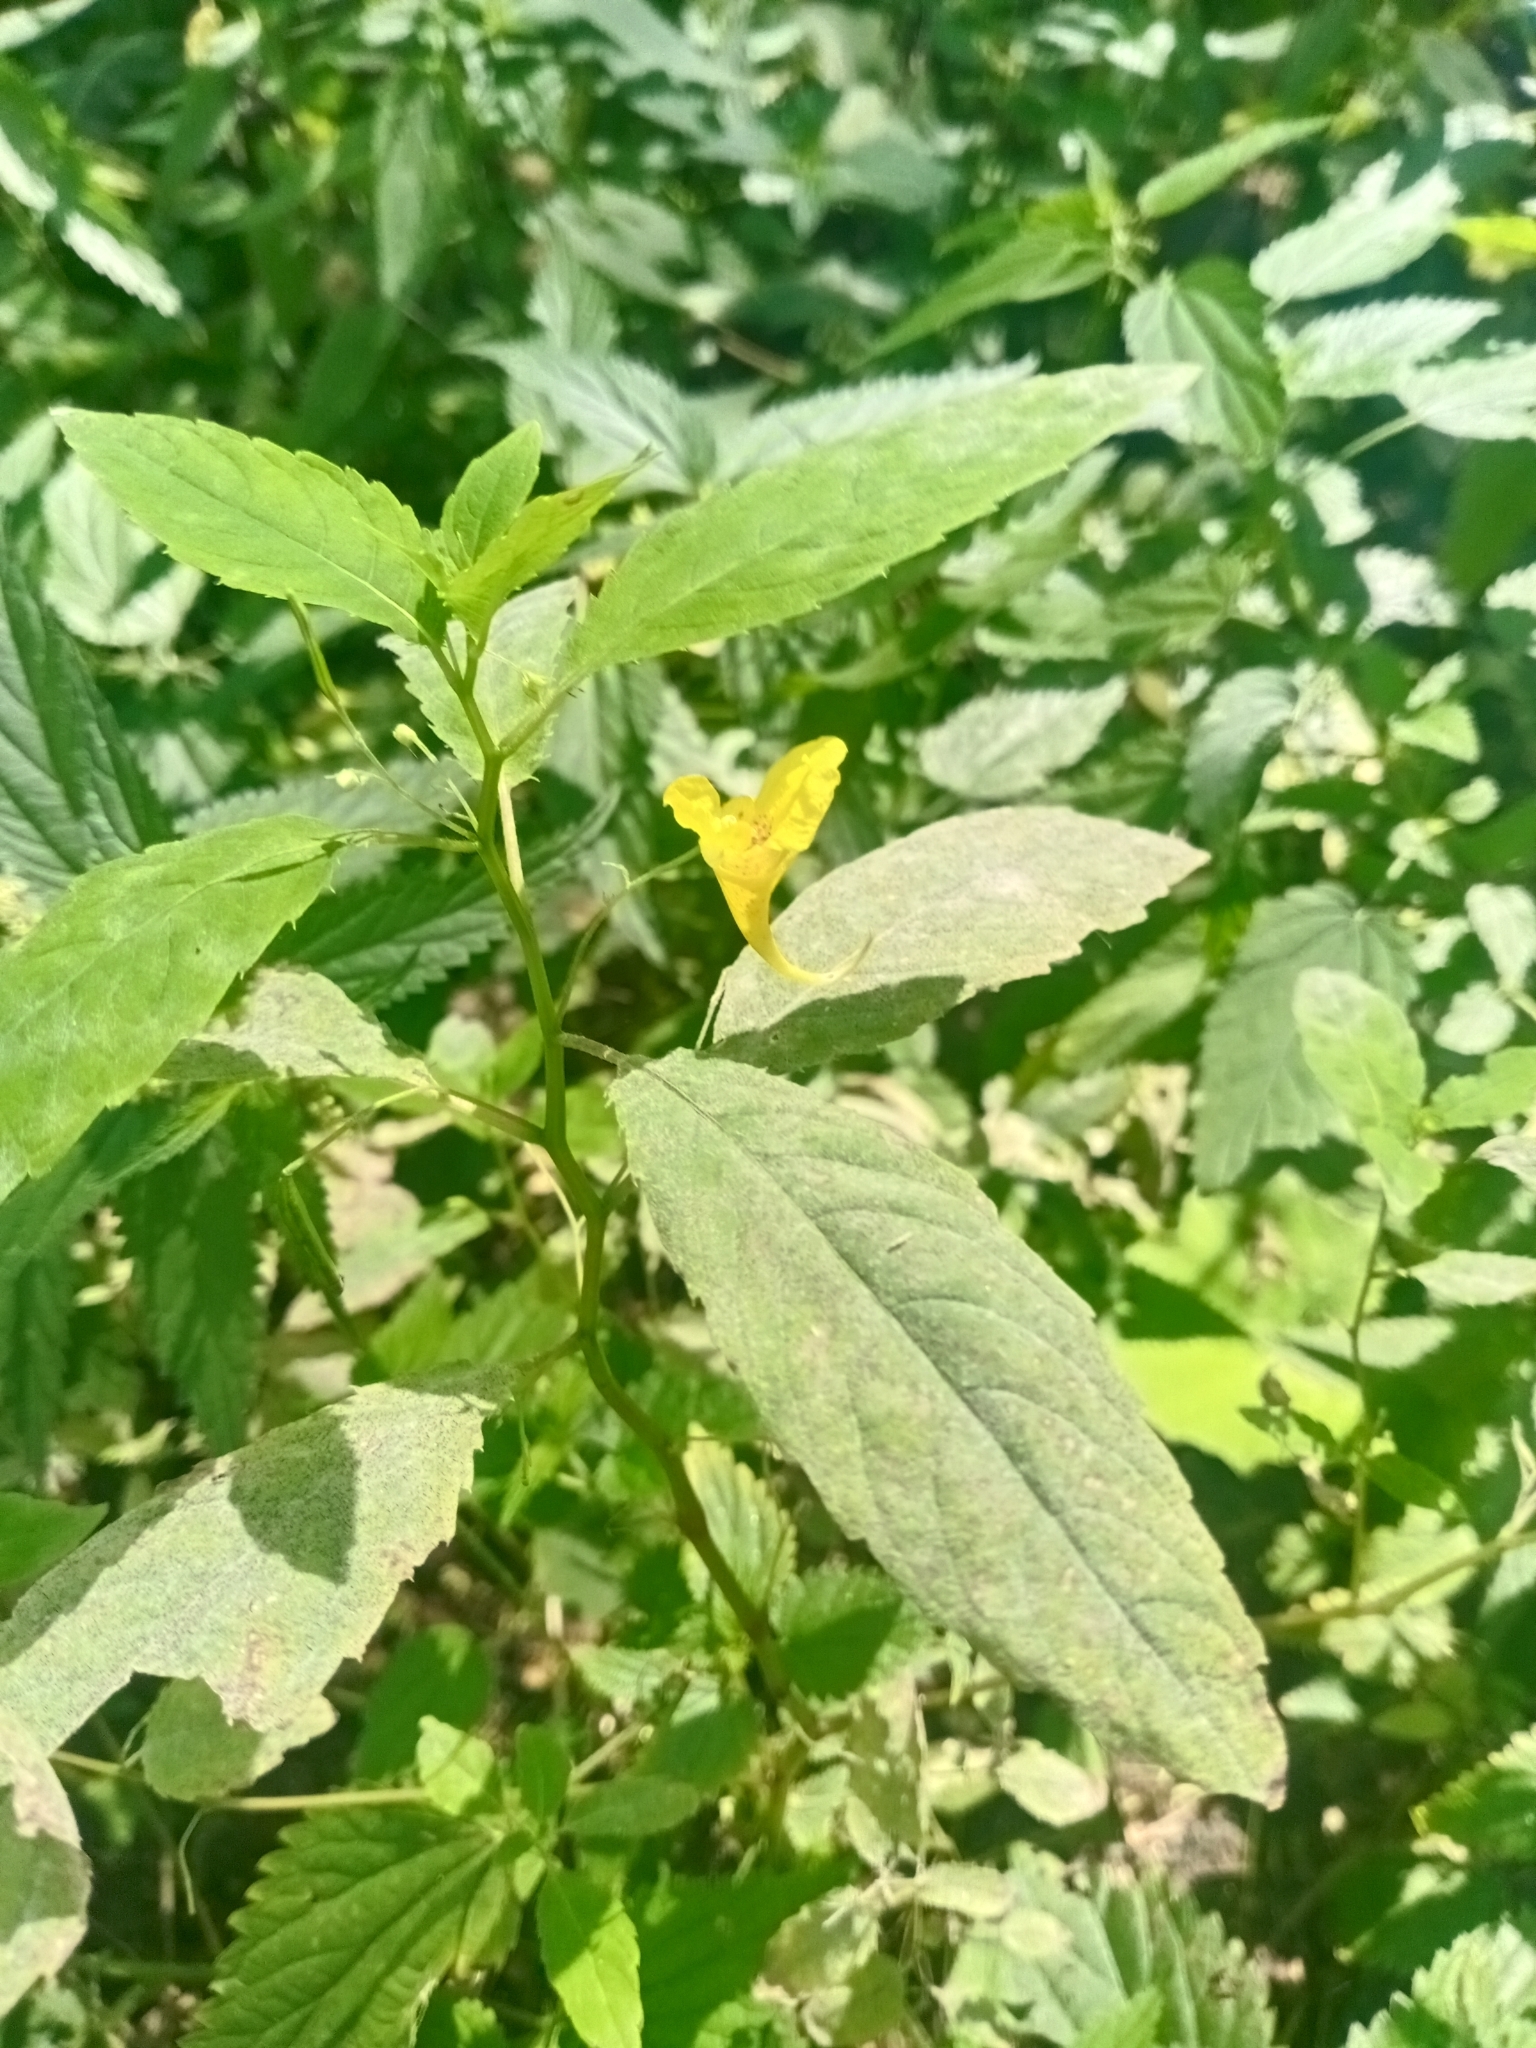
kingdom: Plantae
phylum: Tracheophyta
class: Magnoliopsida
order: Ericales
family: Balsaminaceae
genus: Impatiens
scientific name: Impatiens noli-tangere
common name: Touch-me-not balsam
